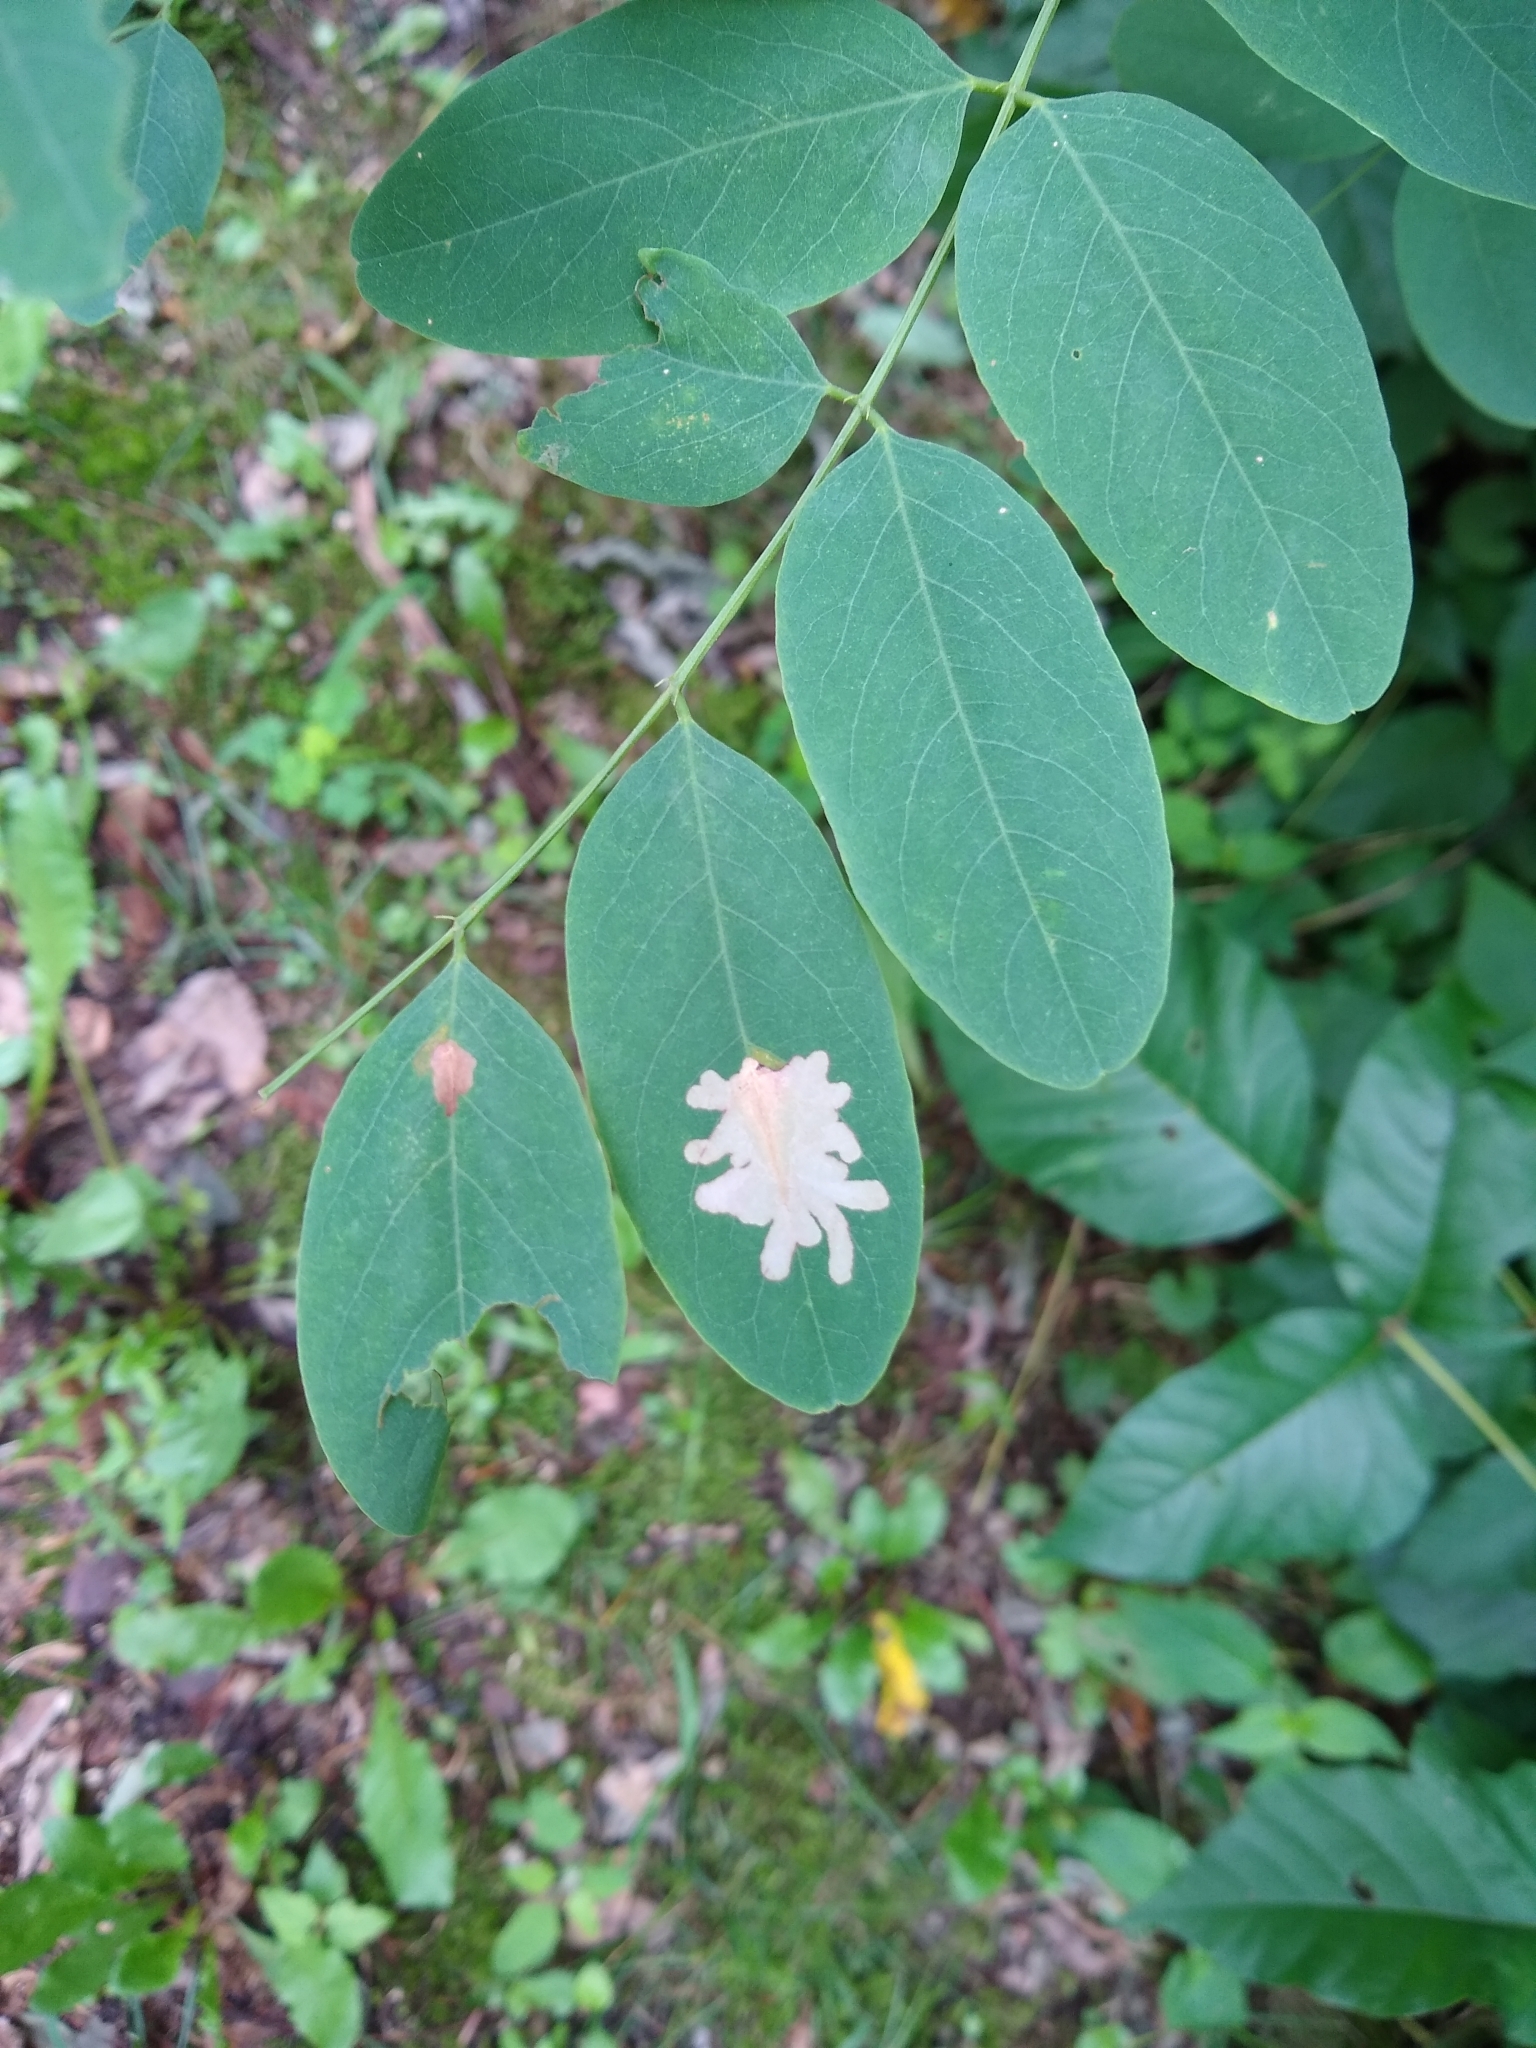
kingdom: Animalia
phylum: Arthropoda
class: Insecta
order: Lepidoptera
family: Gracillariidae
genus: Parectopa
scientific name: Parectopa robiniella
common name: Locust digitate leafminer
